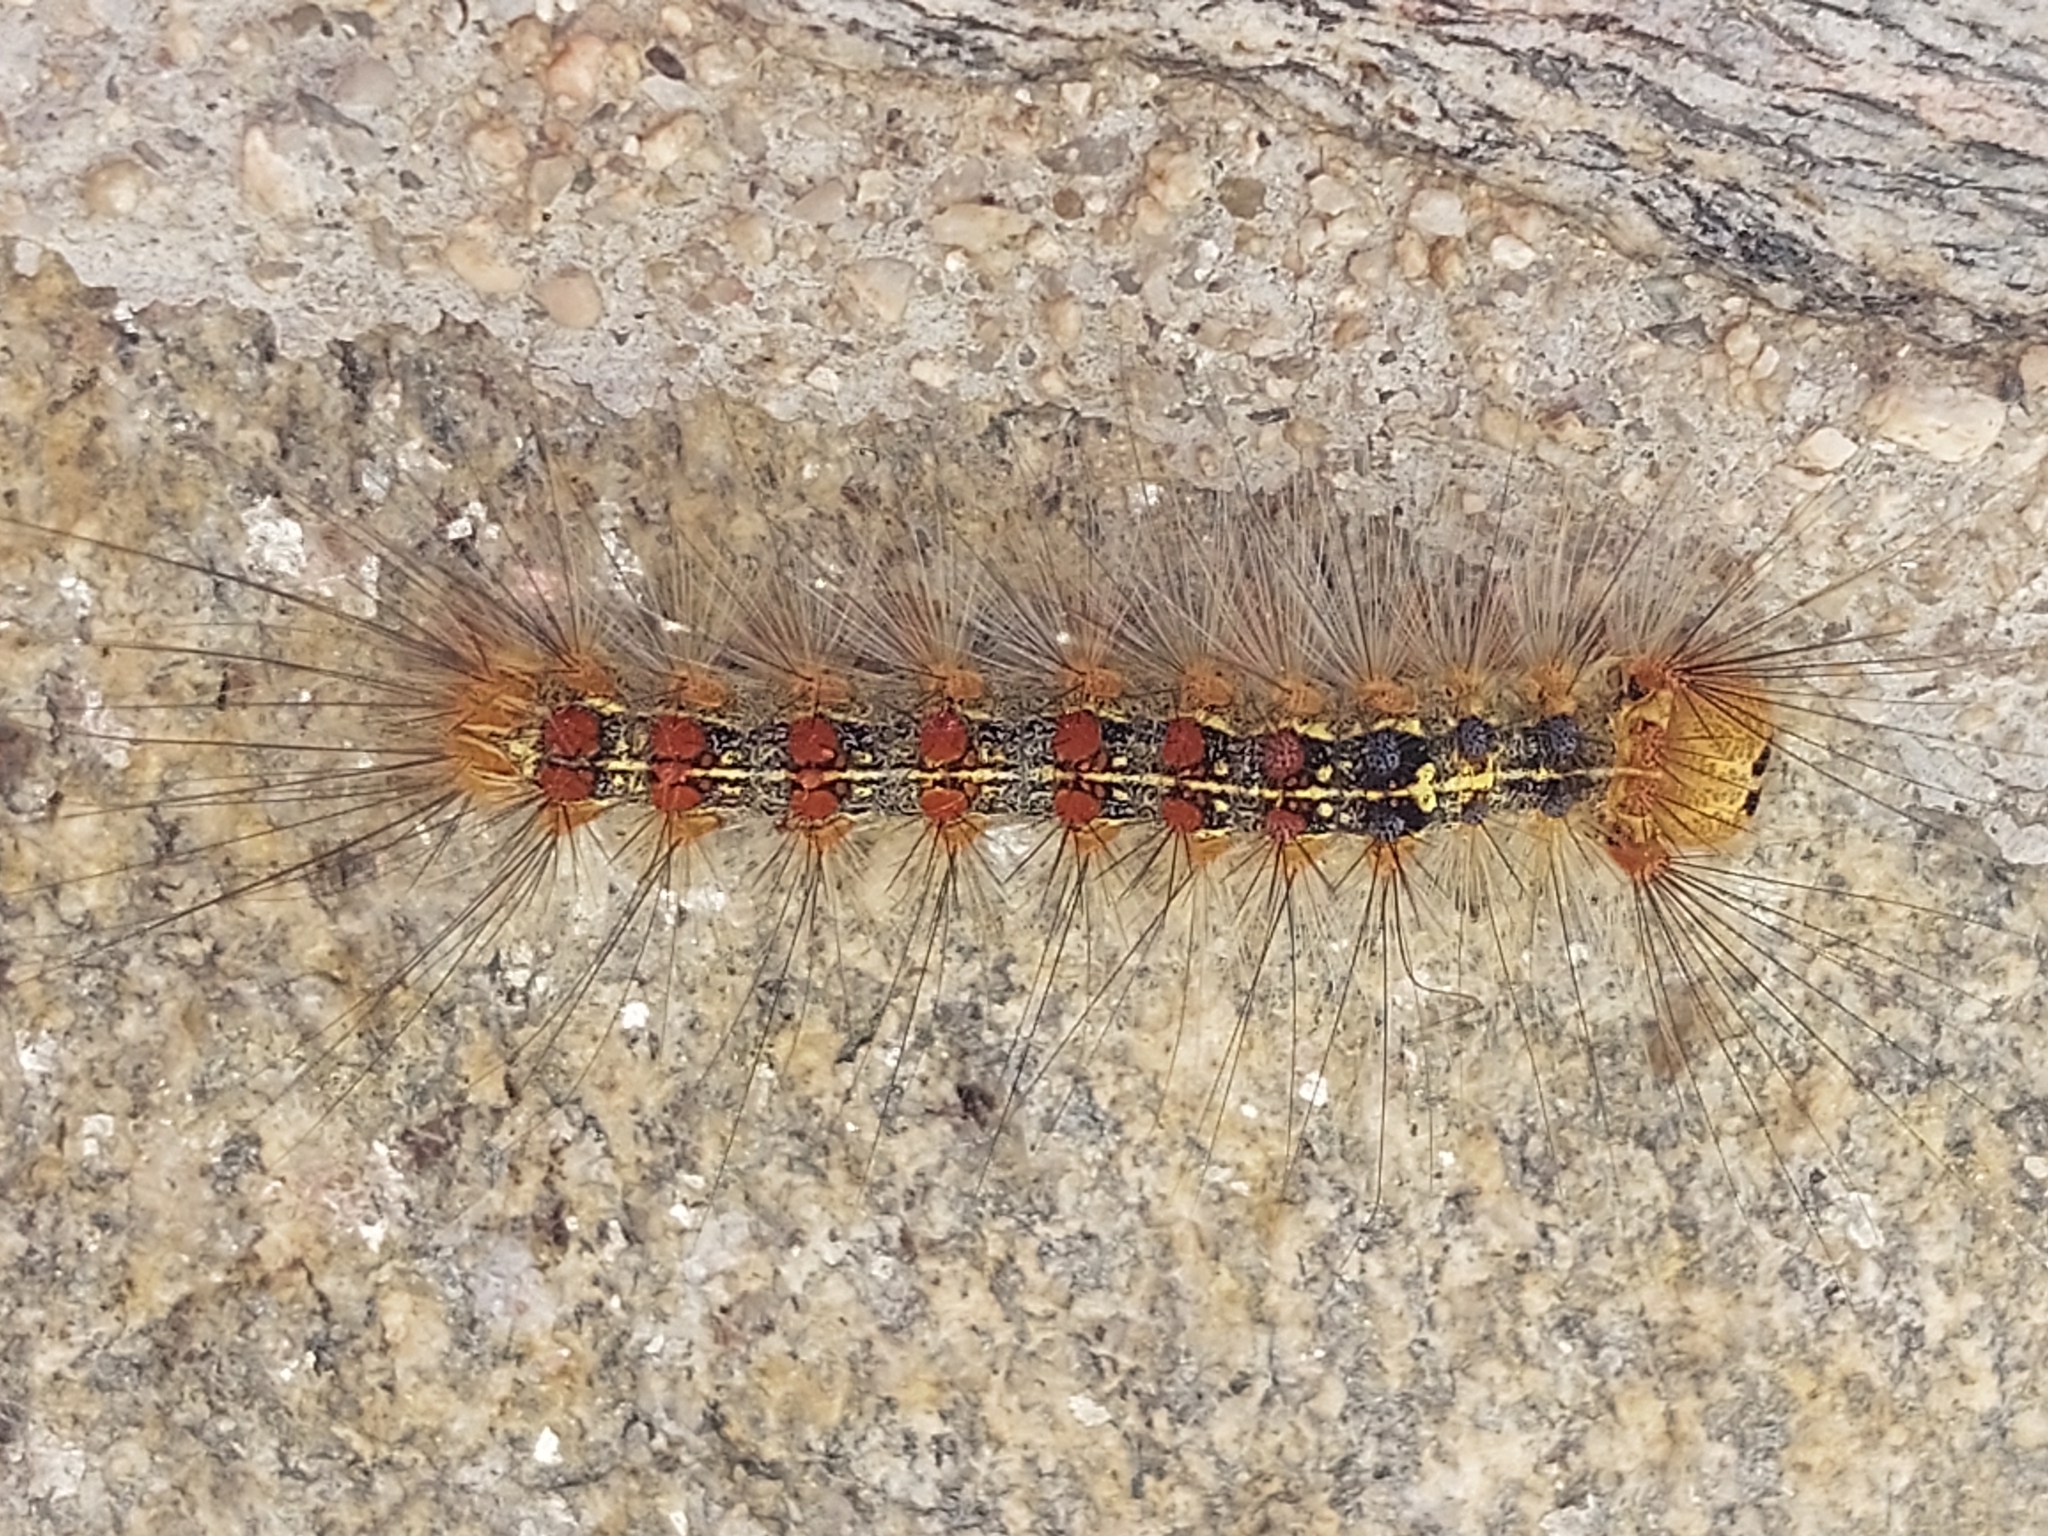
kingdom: Animalia
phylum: Arthropoda
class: Insecta
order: Lepidoptera
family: Erebidae
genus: Lymantria
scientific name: Lymantria dispar
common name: Gypsy moth
